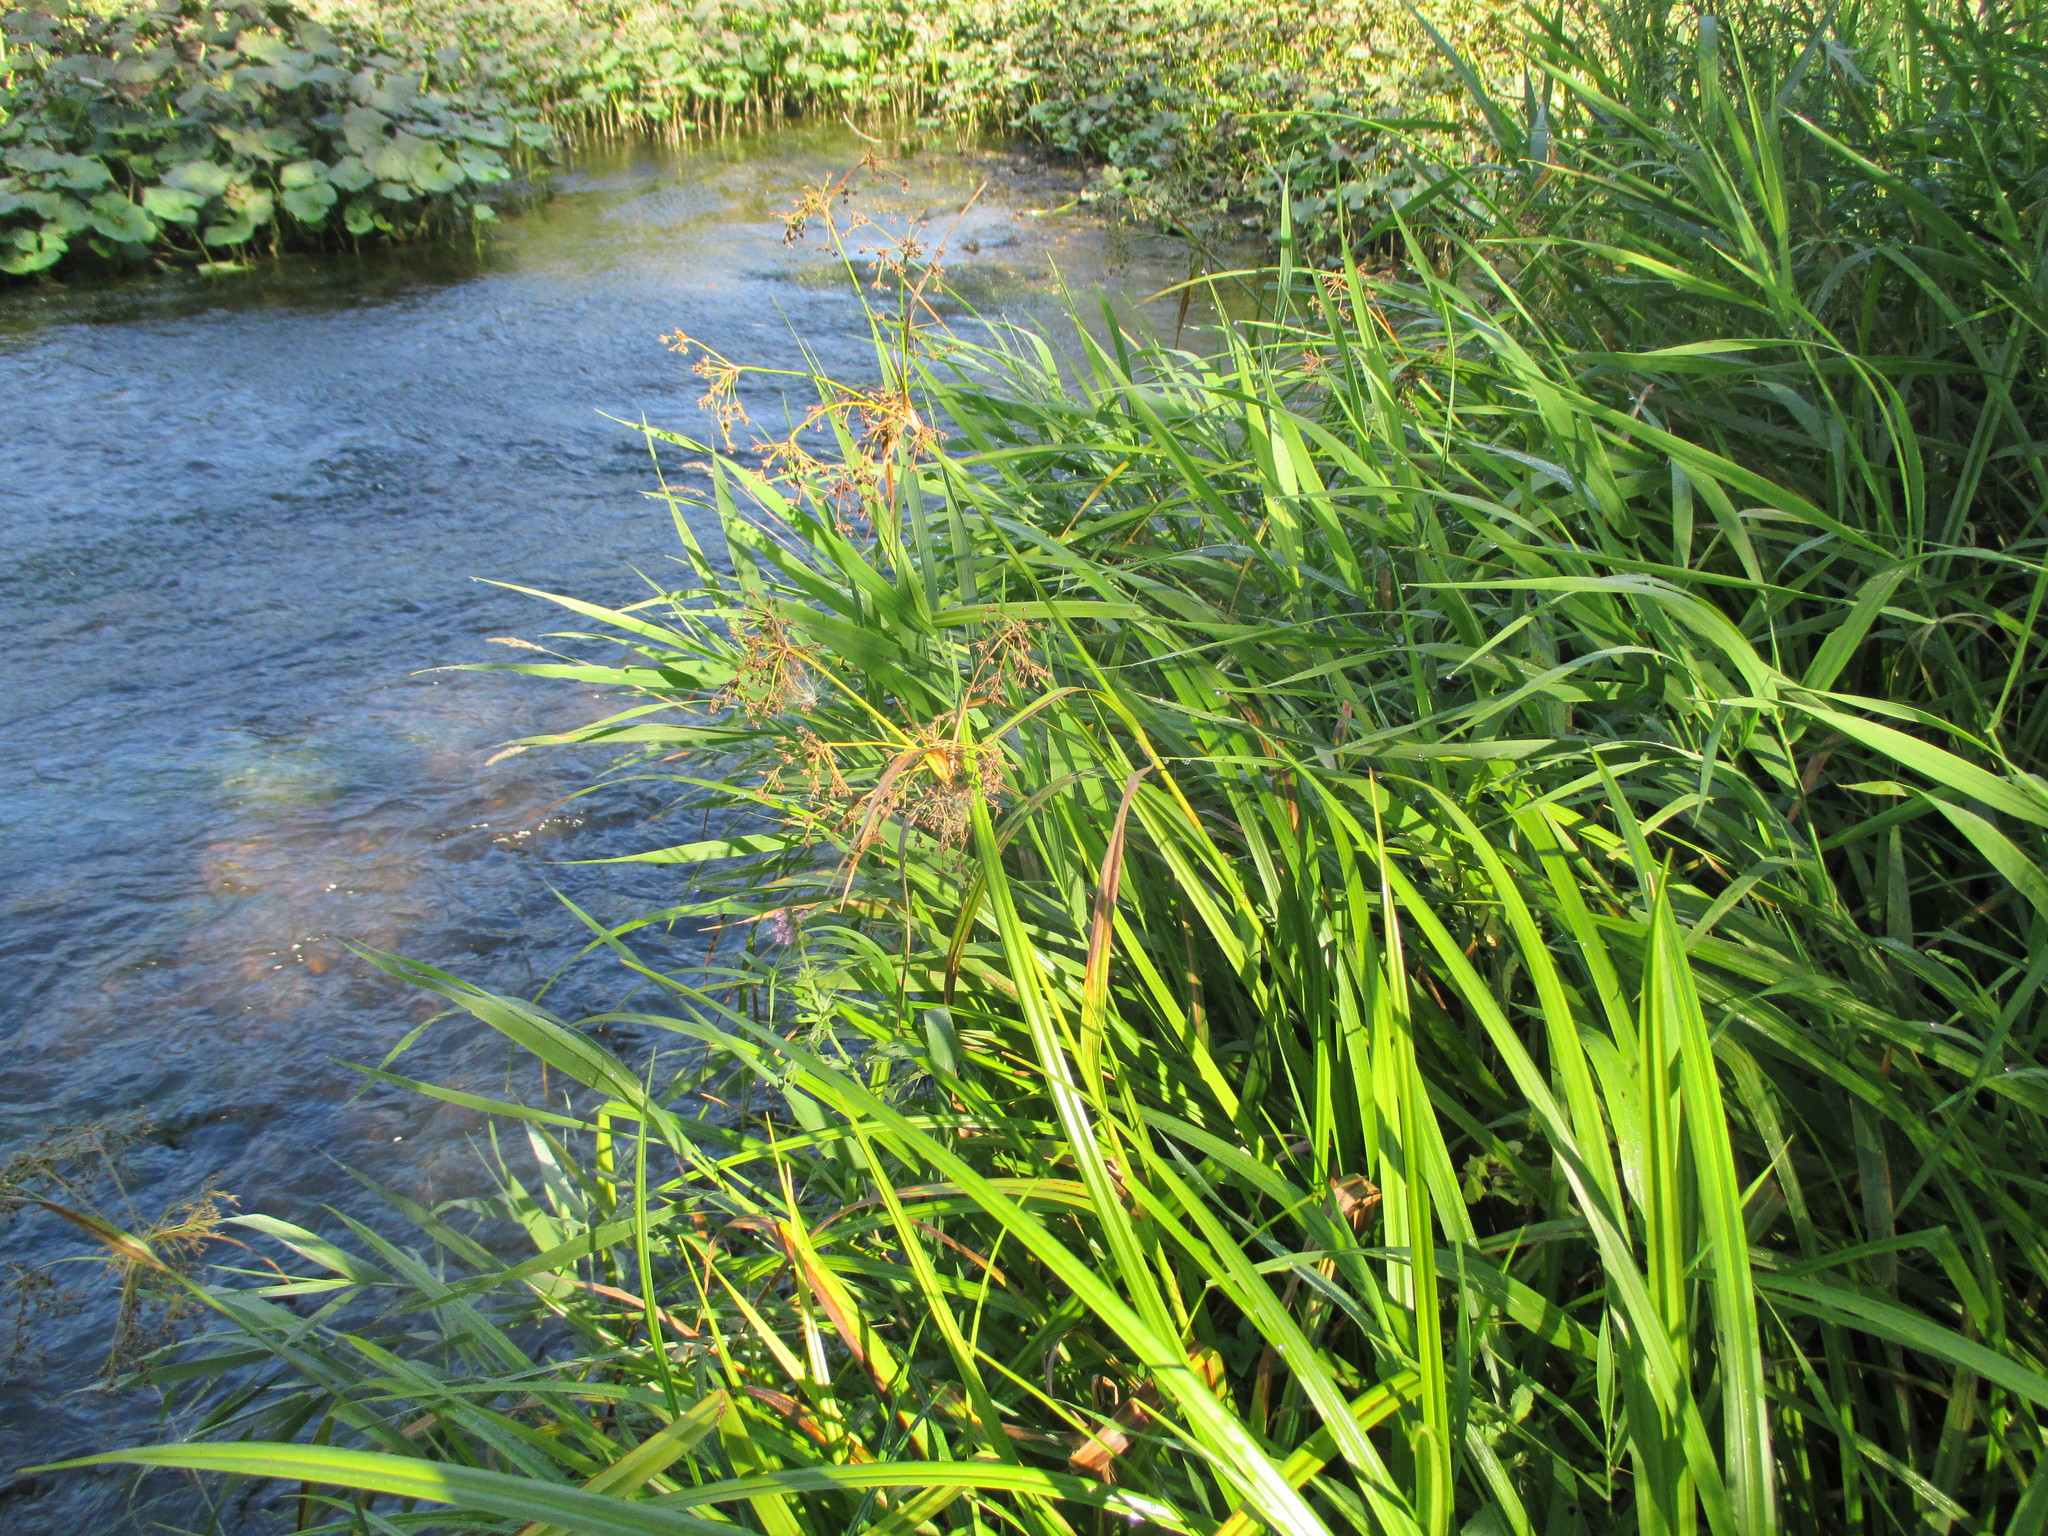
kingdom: Plantae
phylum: Tracheophyta
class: Liliopsida
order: Poales
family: Cyperaceae
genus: Scirpus
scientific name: Scirpus sylvaticus
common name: Wood club-rush
